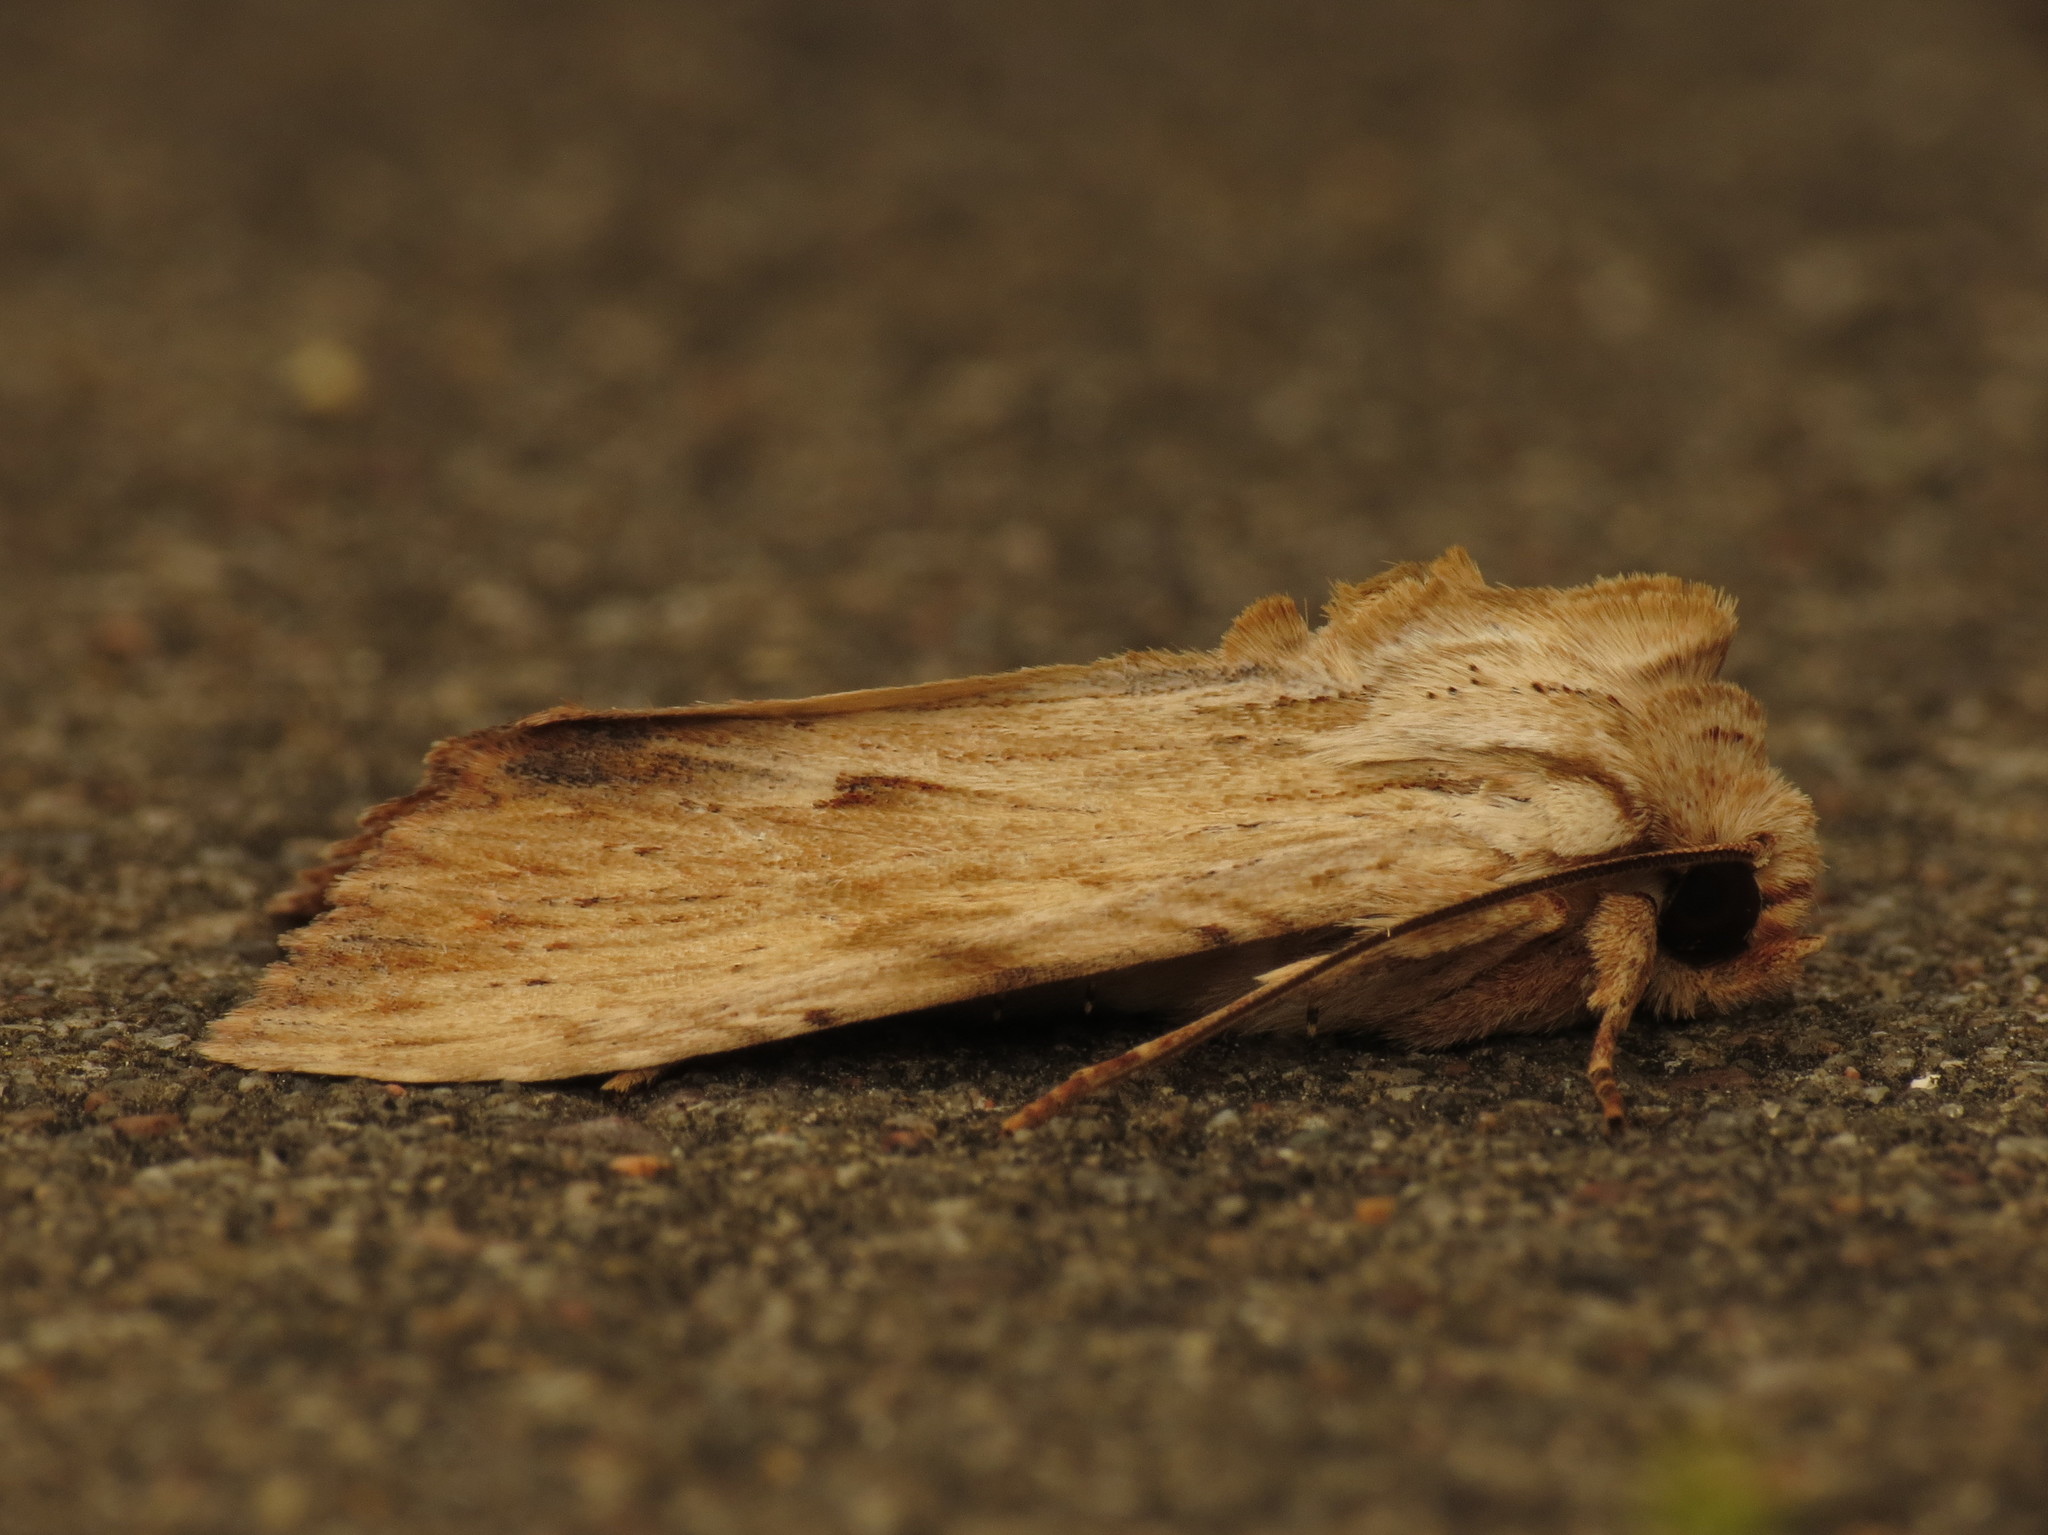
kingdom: Animalia
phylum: Arthropoda
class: Insecta
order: Lepidoptera
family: Noctuidae
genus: Apamea
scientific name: Apamea lithoxylaea
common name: Light arches
